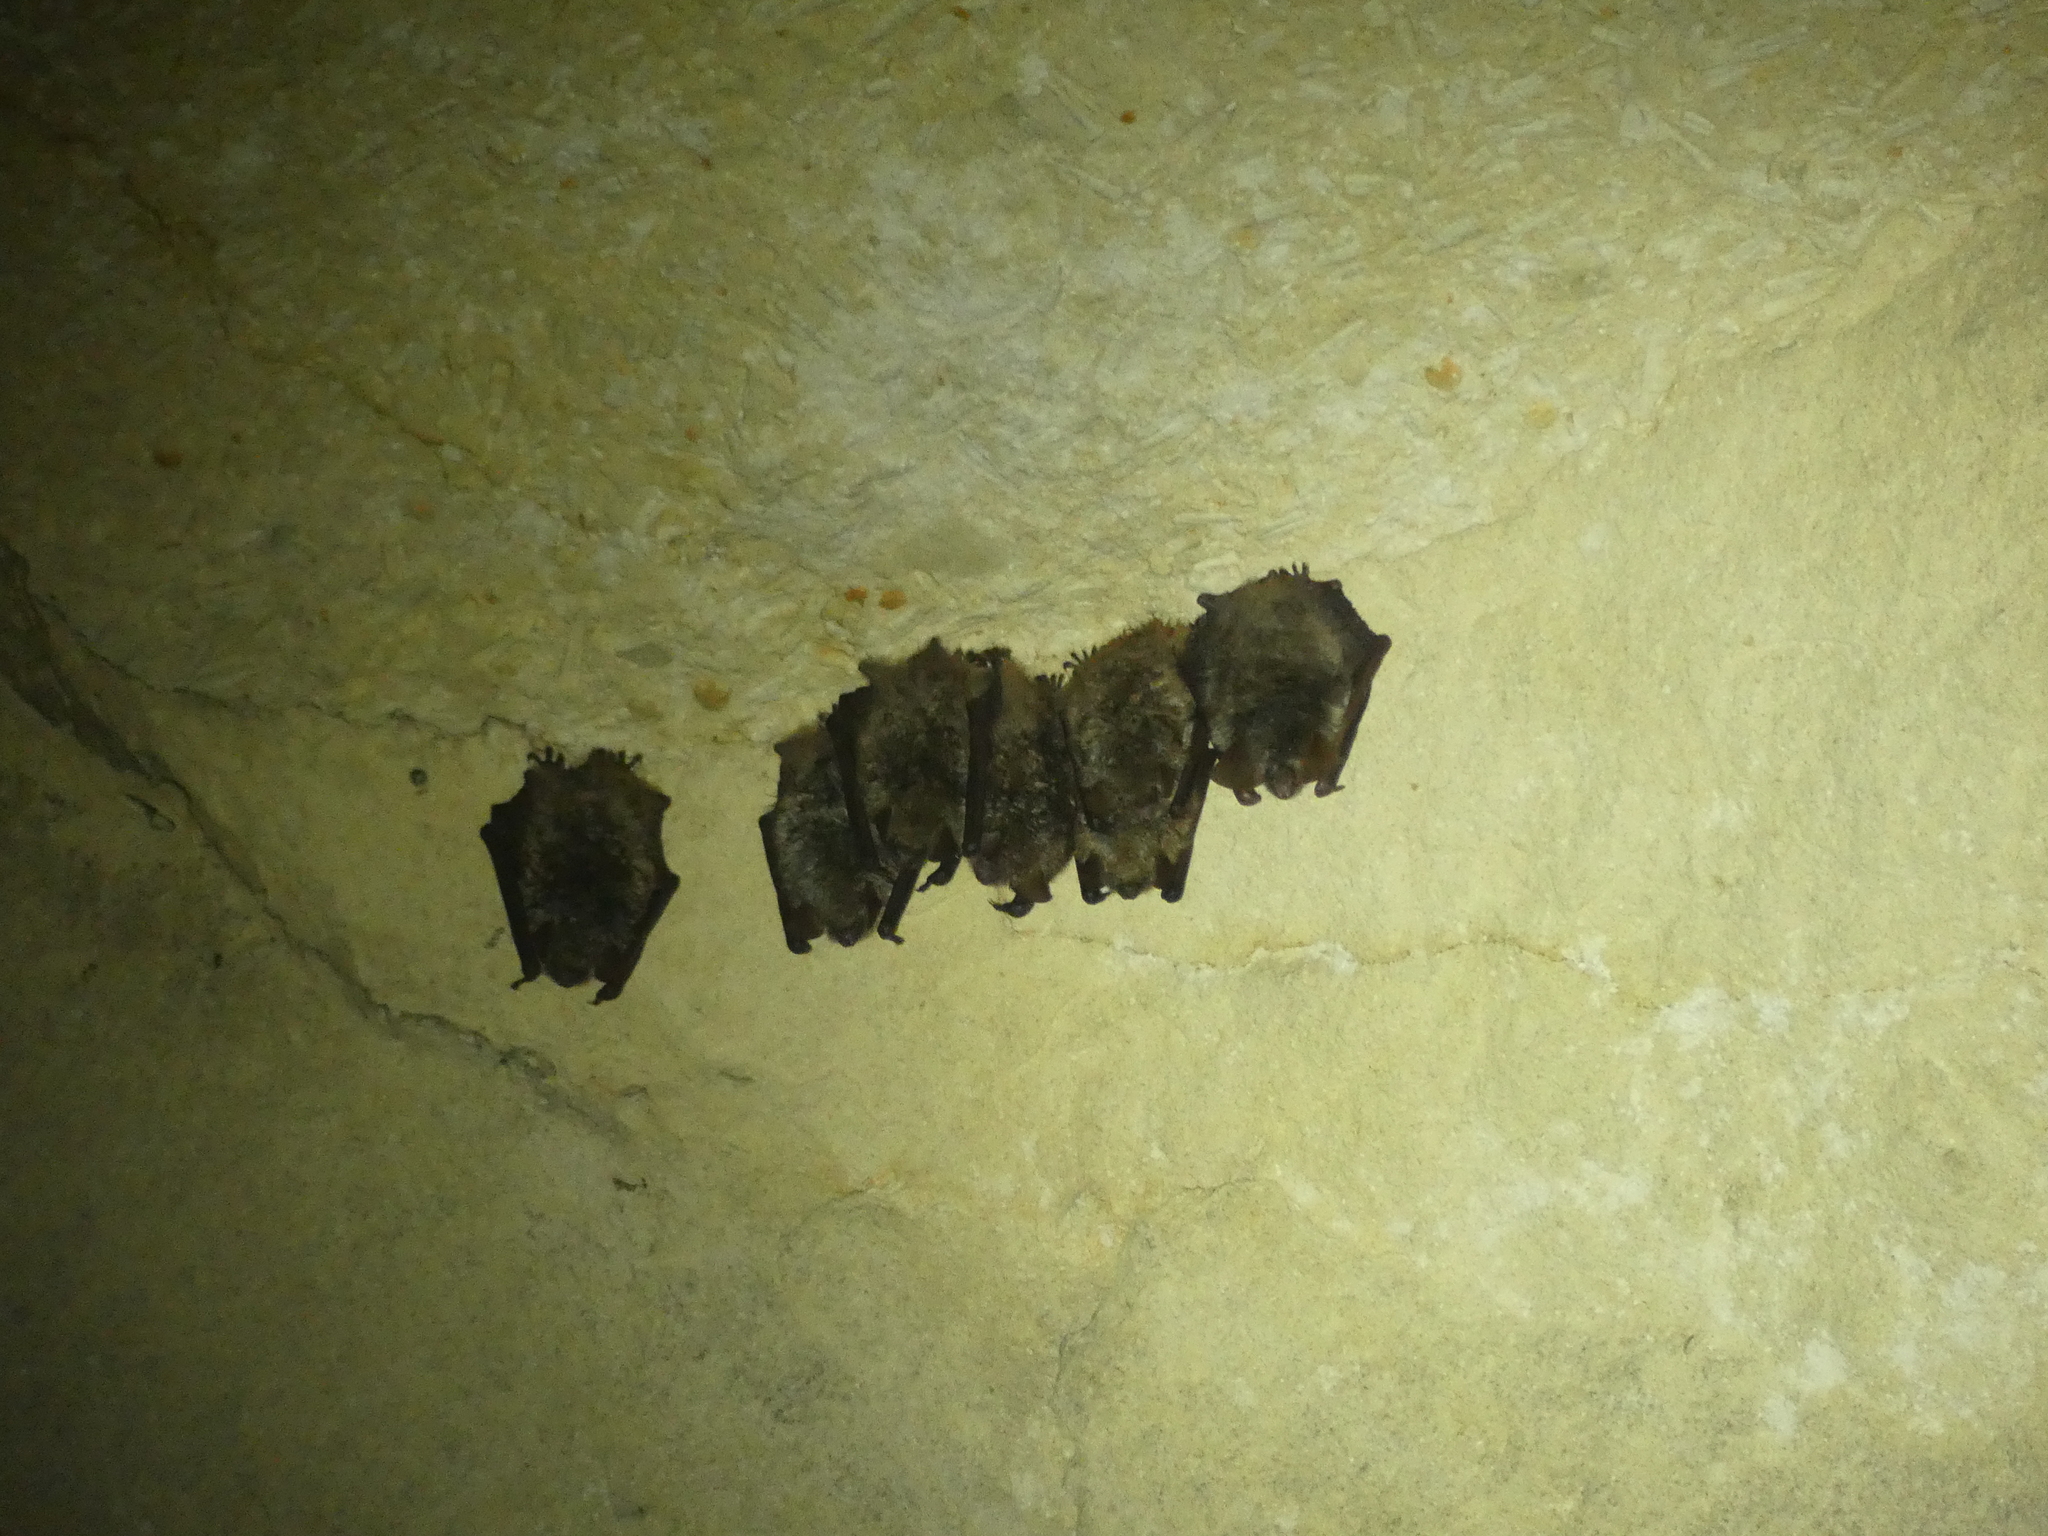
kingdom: Animalia
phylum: Chordata
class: Mammalia
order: Chiroptera
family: Vespertilionidae
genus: Myotis
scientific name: Myotis emarginatus
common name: Geoffroy's bat
